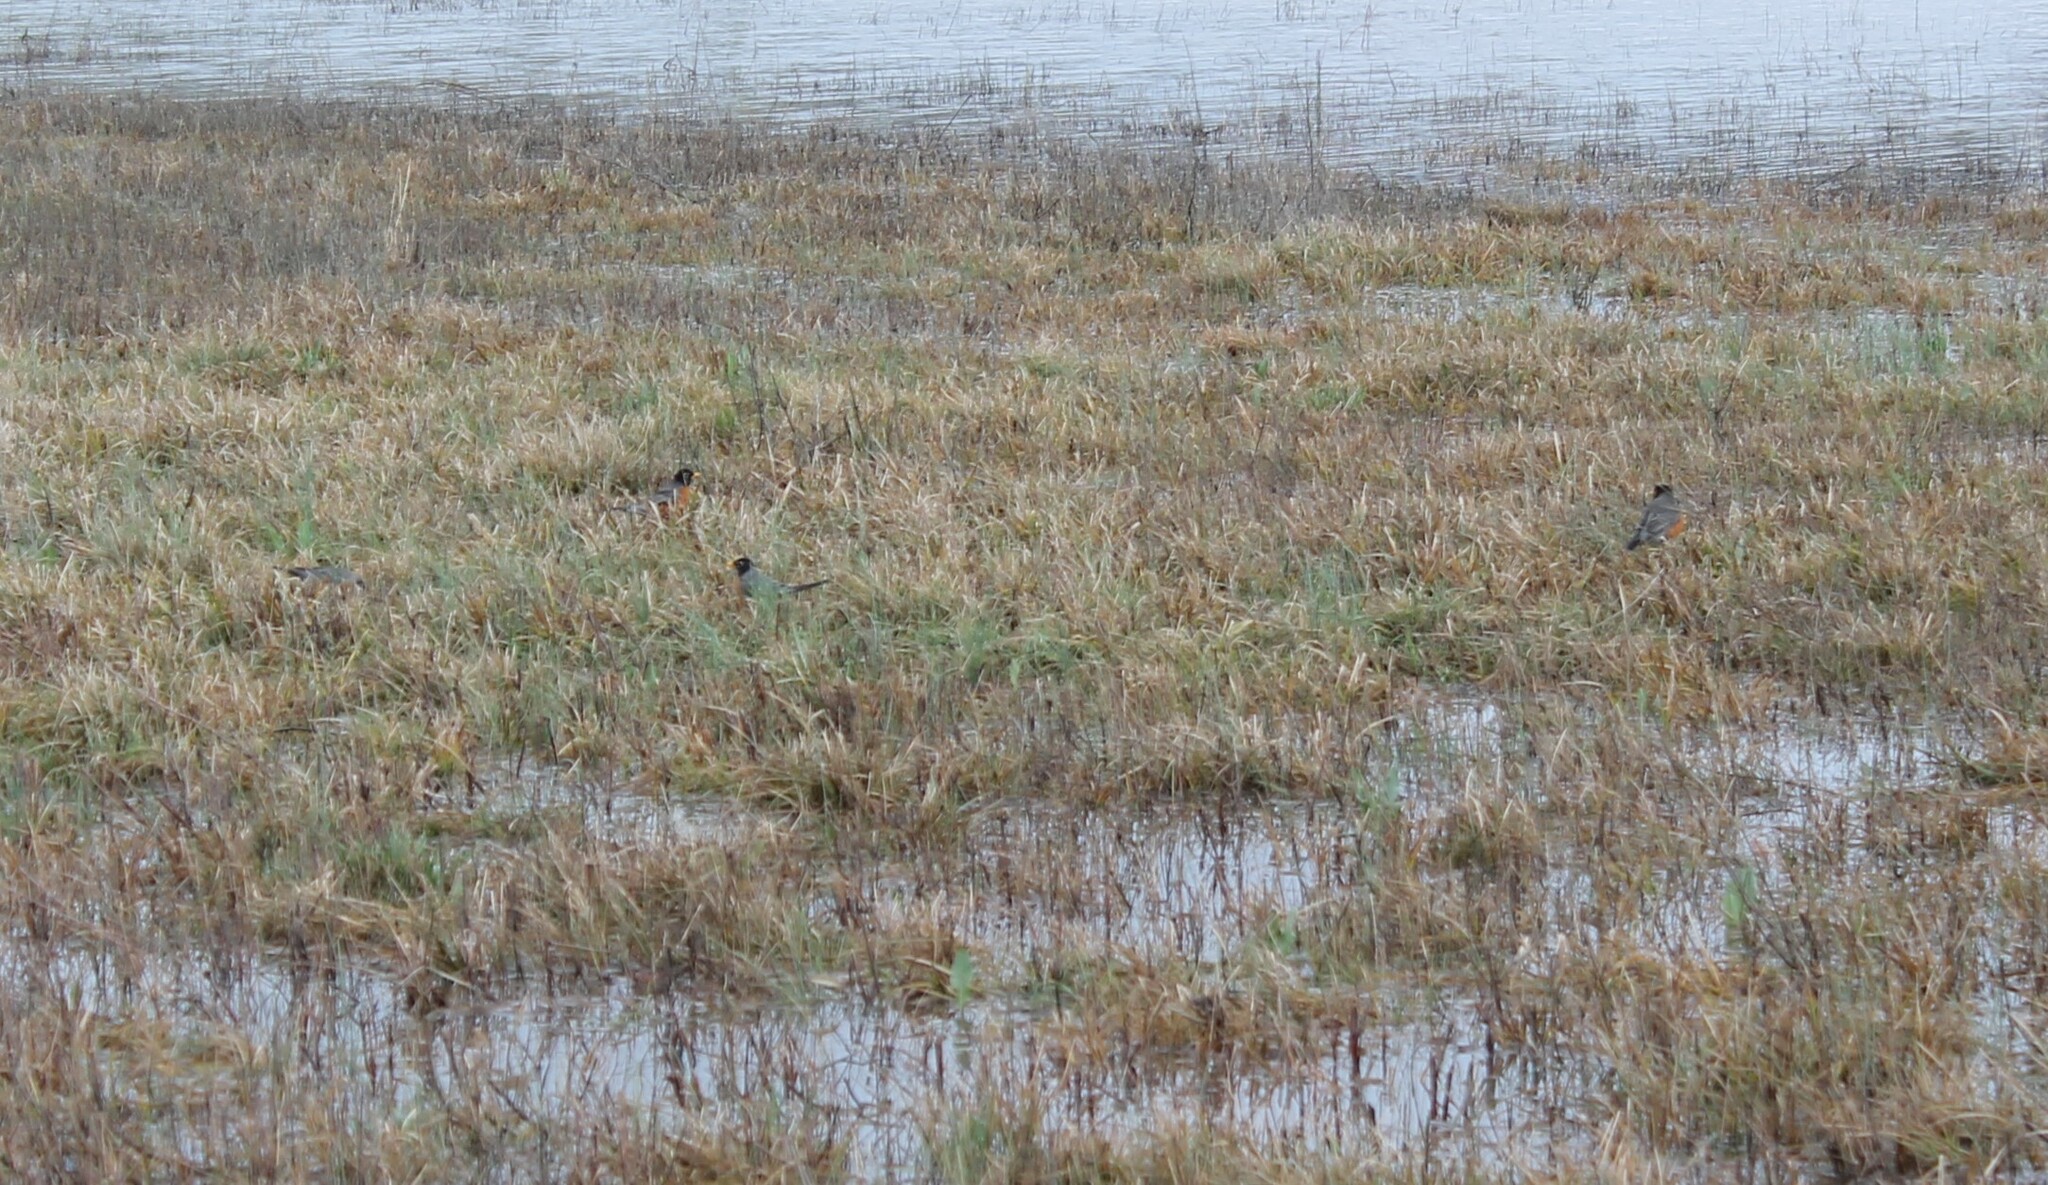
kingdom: Animalia
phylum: Chordata
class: Aves
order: Passeriformes
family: Turdidae
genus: Turdus
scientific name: Turdus migratorius
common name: American robin
